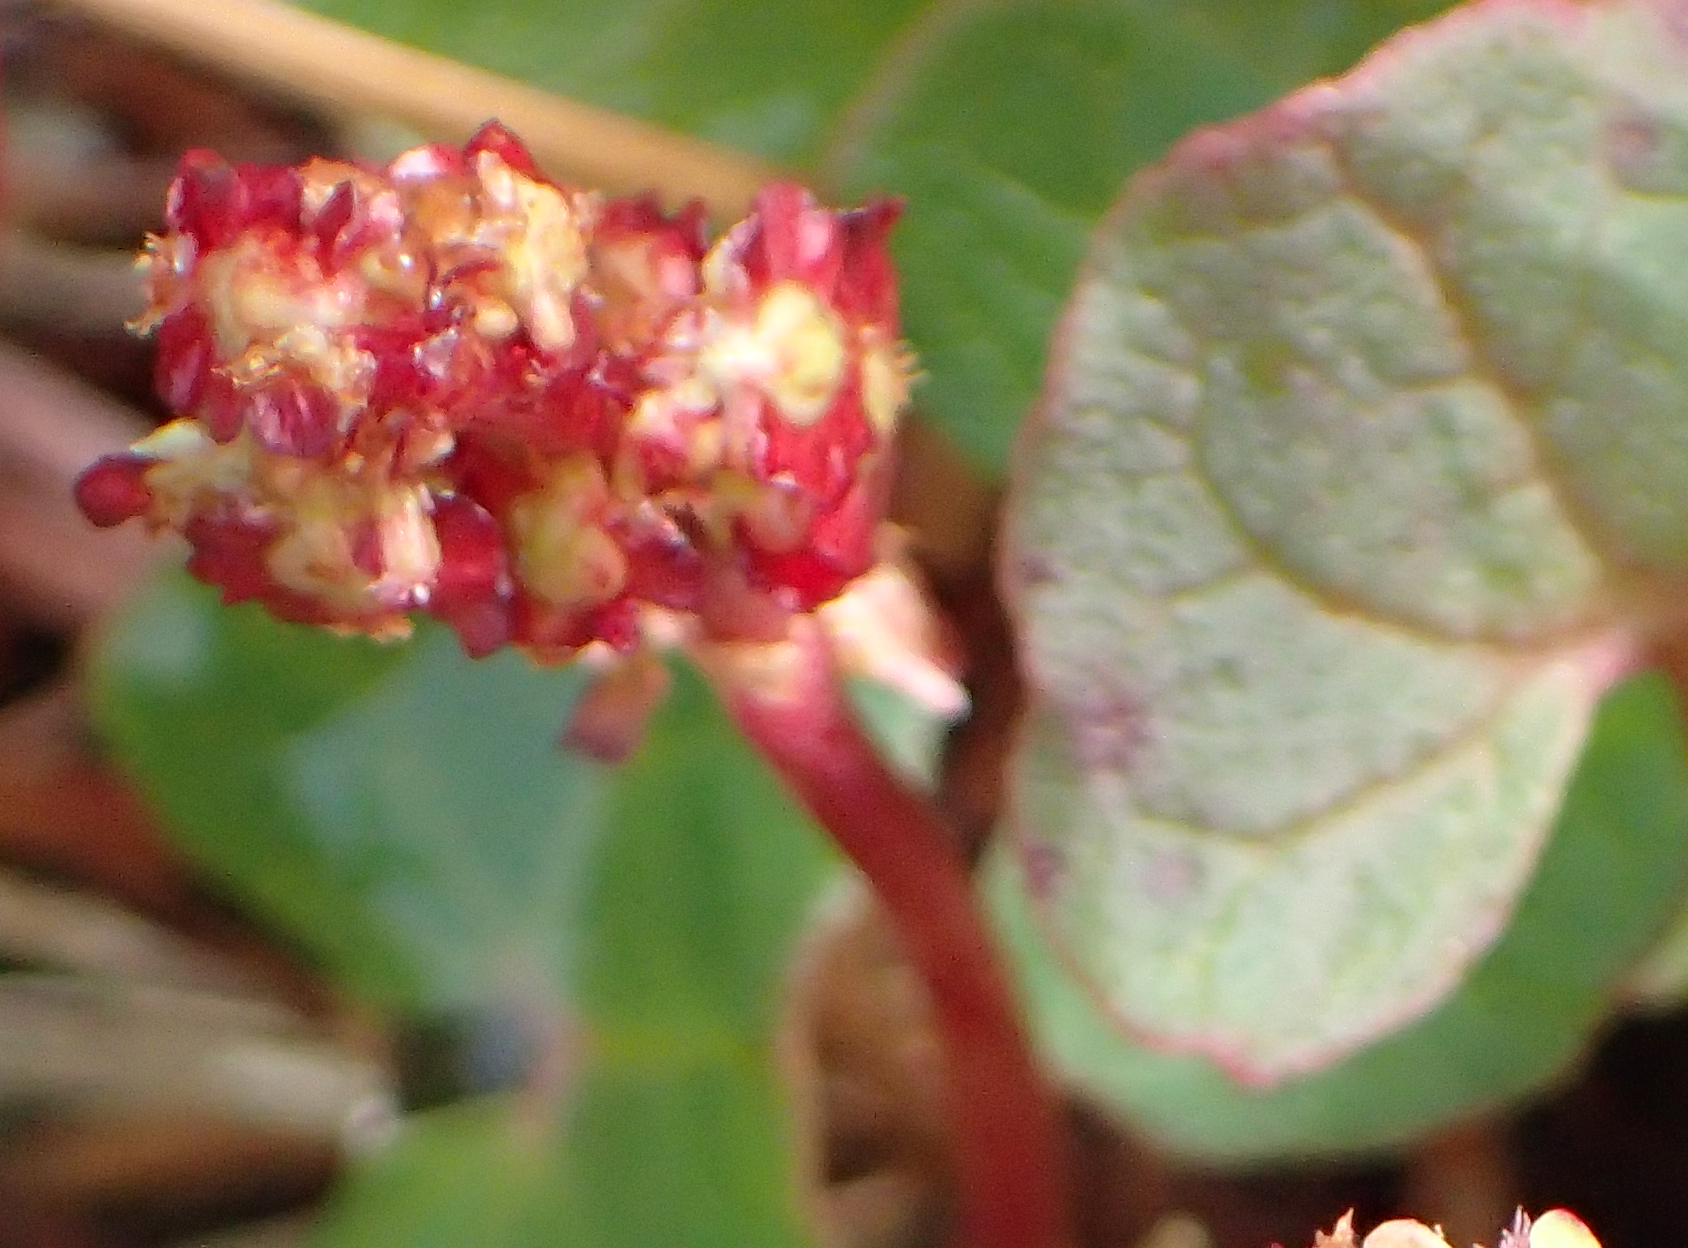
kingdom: Plantae
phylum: Tracheophyta
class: Magnoliopsida
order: Caryophyllales
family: Polygonaceae
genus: Oxyria
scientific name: Oxyria digyna
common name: Alpine mountain-sorrel
